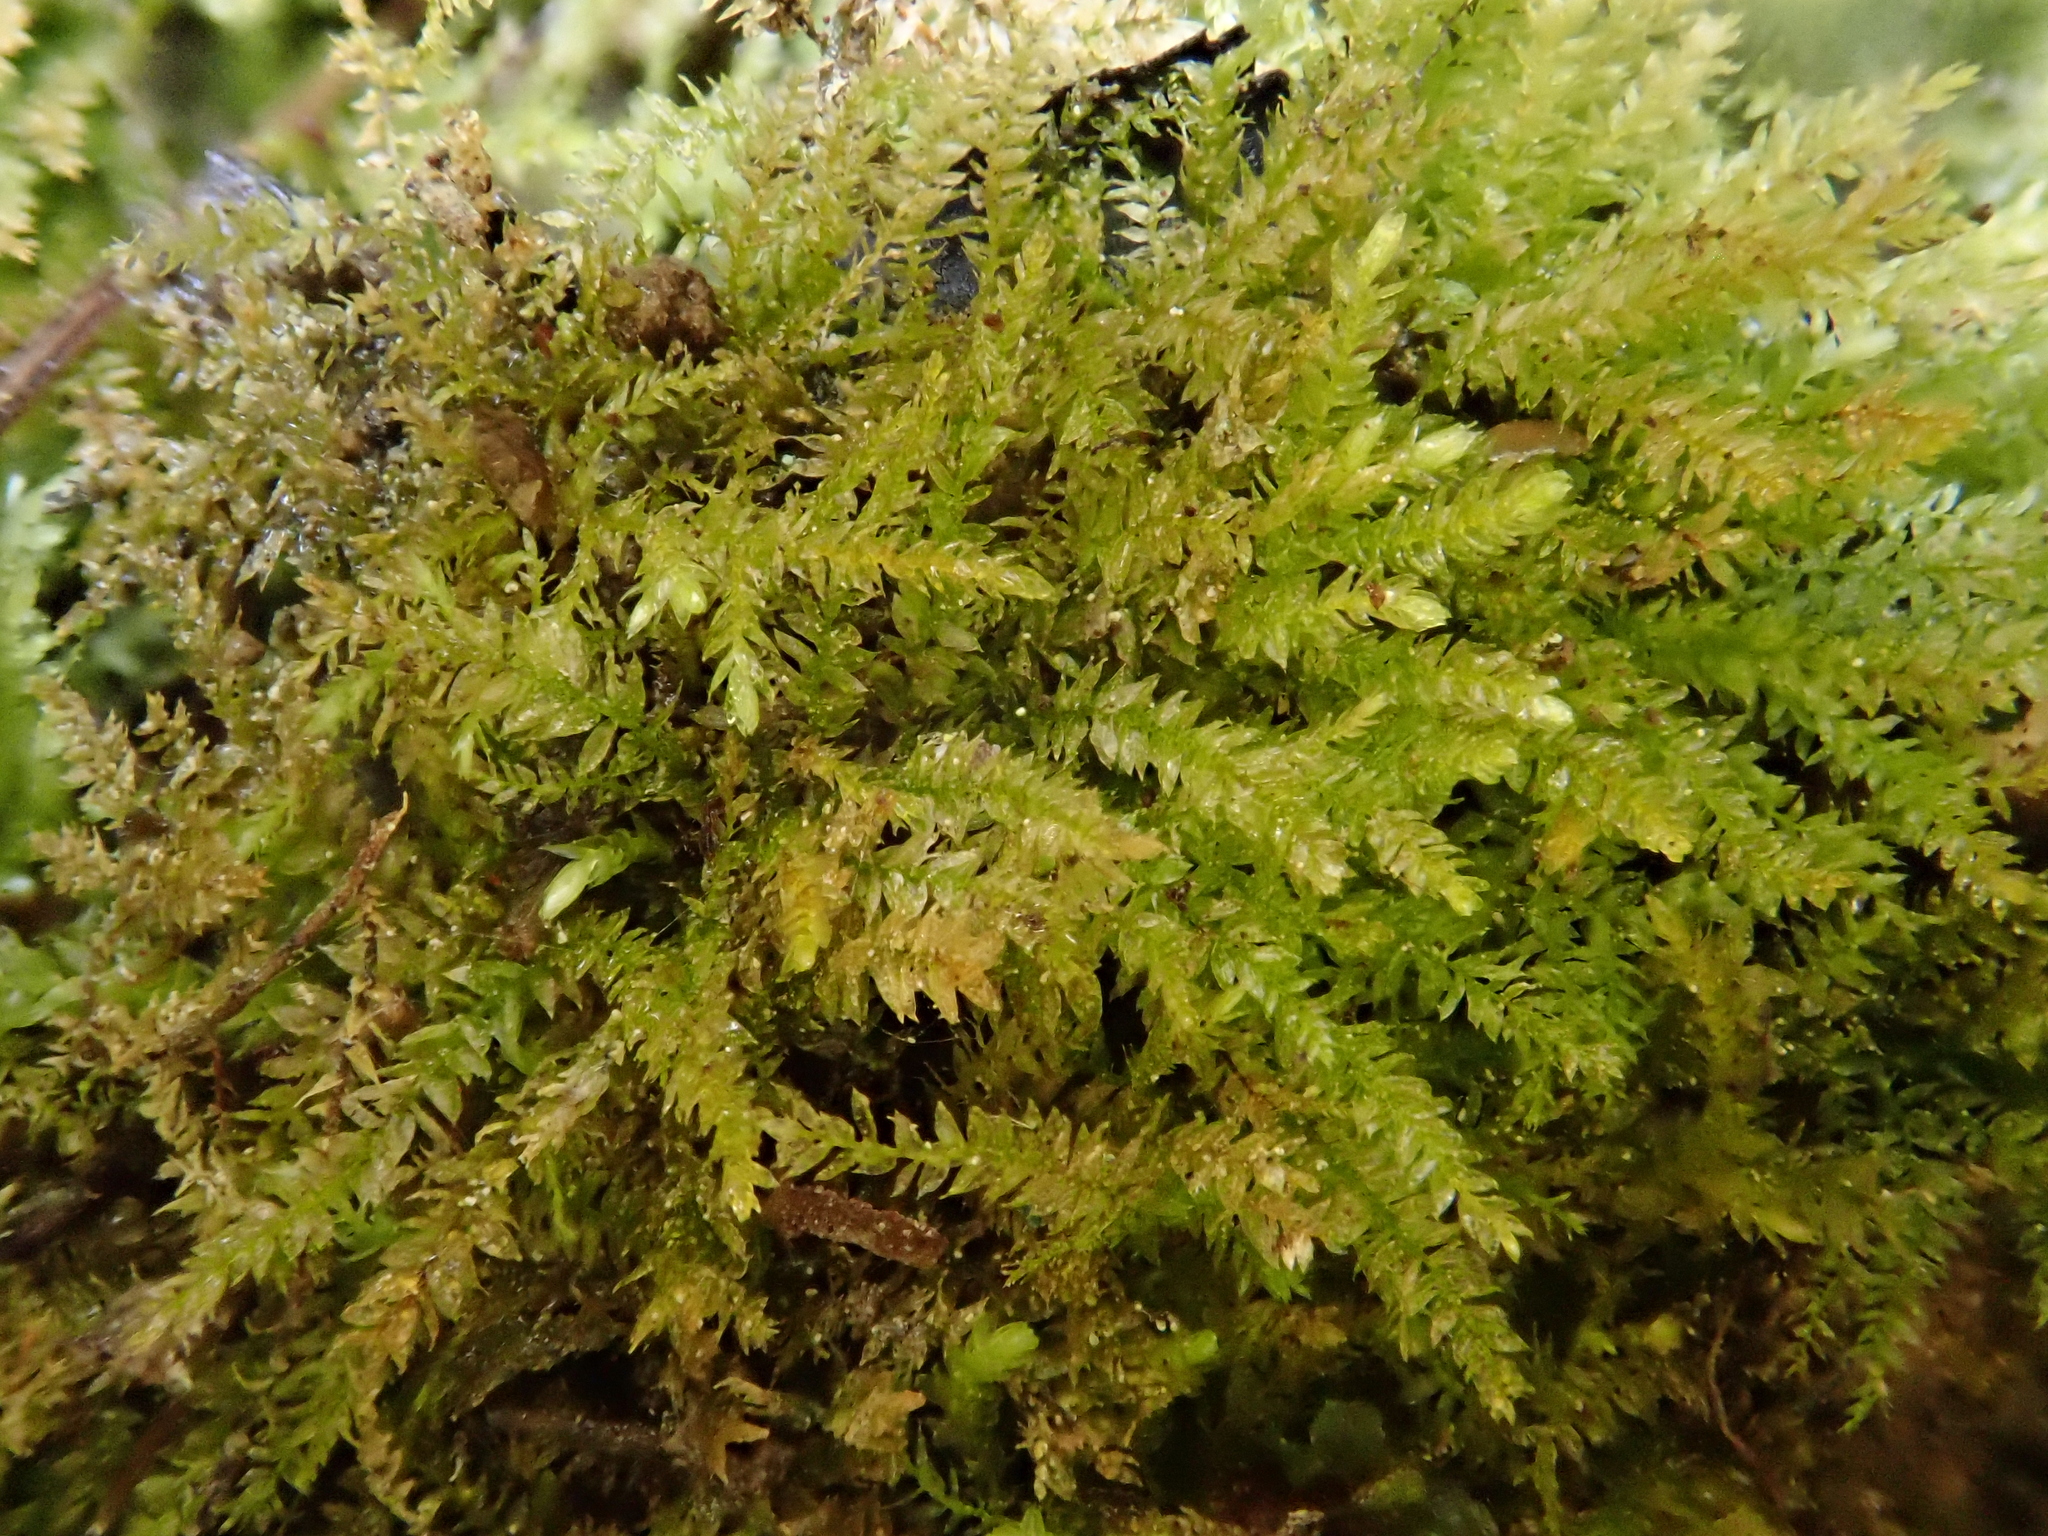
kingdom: Plantae
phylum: Bryophyta
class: Bryopsida
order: Hypnales
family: Brachytheciaceae
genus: Oxyrrhynchium
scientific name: Oxyrrhynchium hians
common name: Spreading beaked moss
